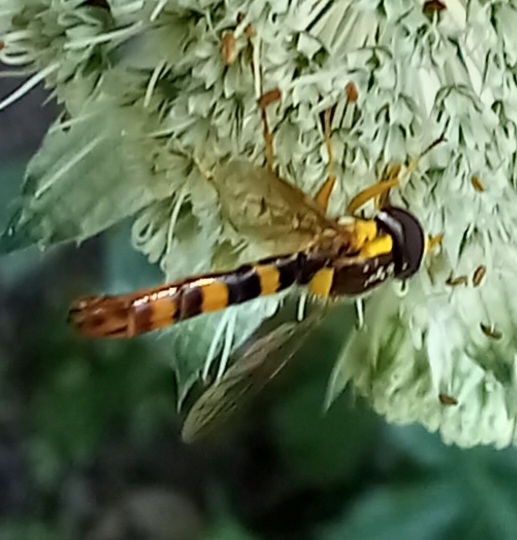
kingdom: Animalia
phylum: Arthropoda
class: Insecta
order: Diptera
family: Syrphidae
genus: Sphaerophoria
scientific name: Sphaerophoria scripta
